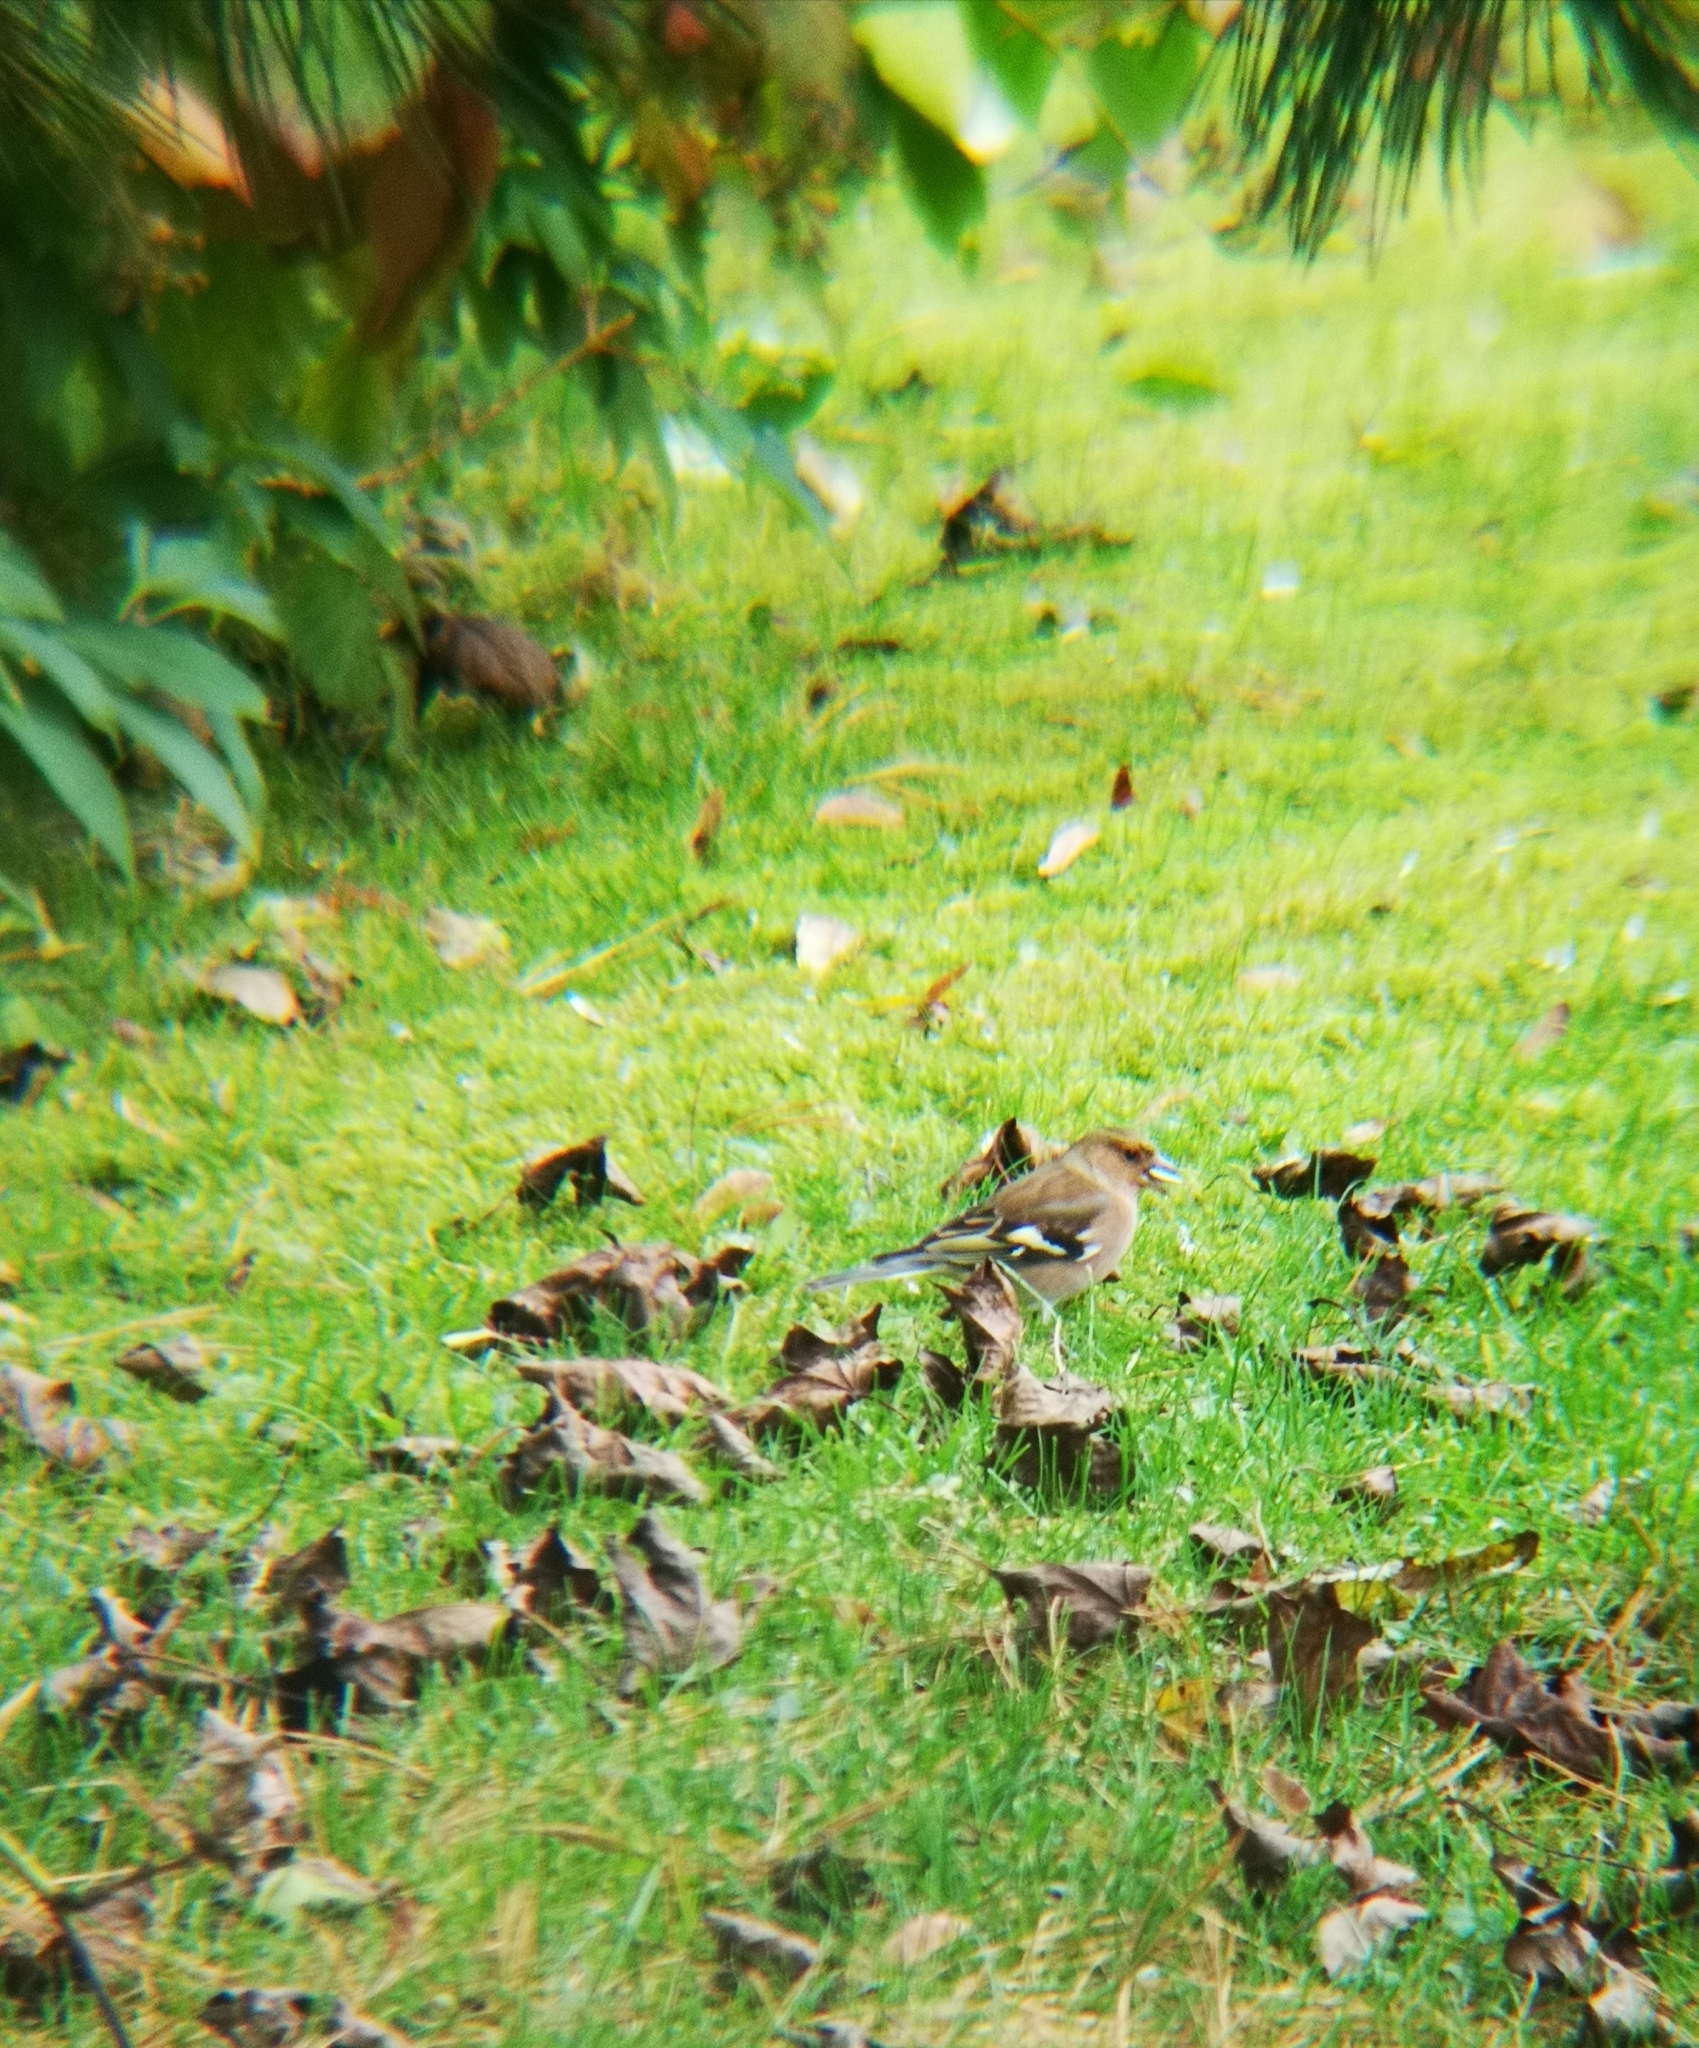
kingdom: Animalia
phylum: Chordata
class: Aves
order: Passeriformes
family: Fringillidae
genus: Fringilla
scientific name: Fringilla coelebs
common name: Common chaffinch
